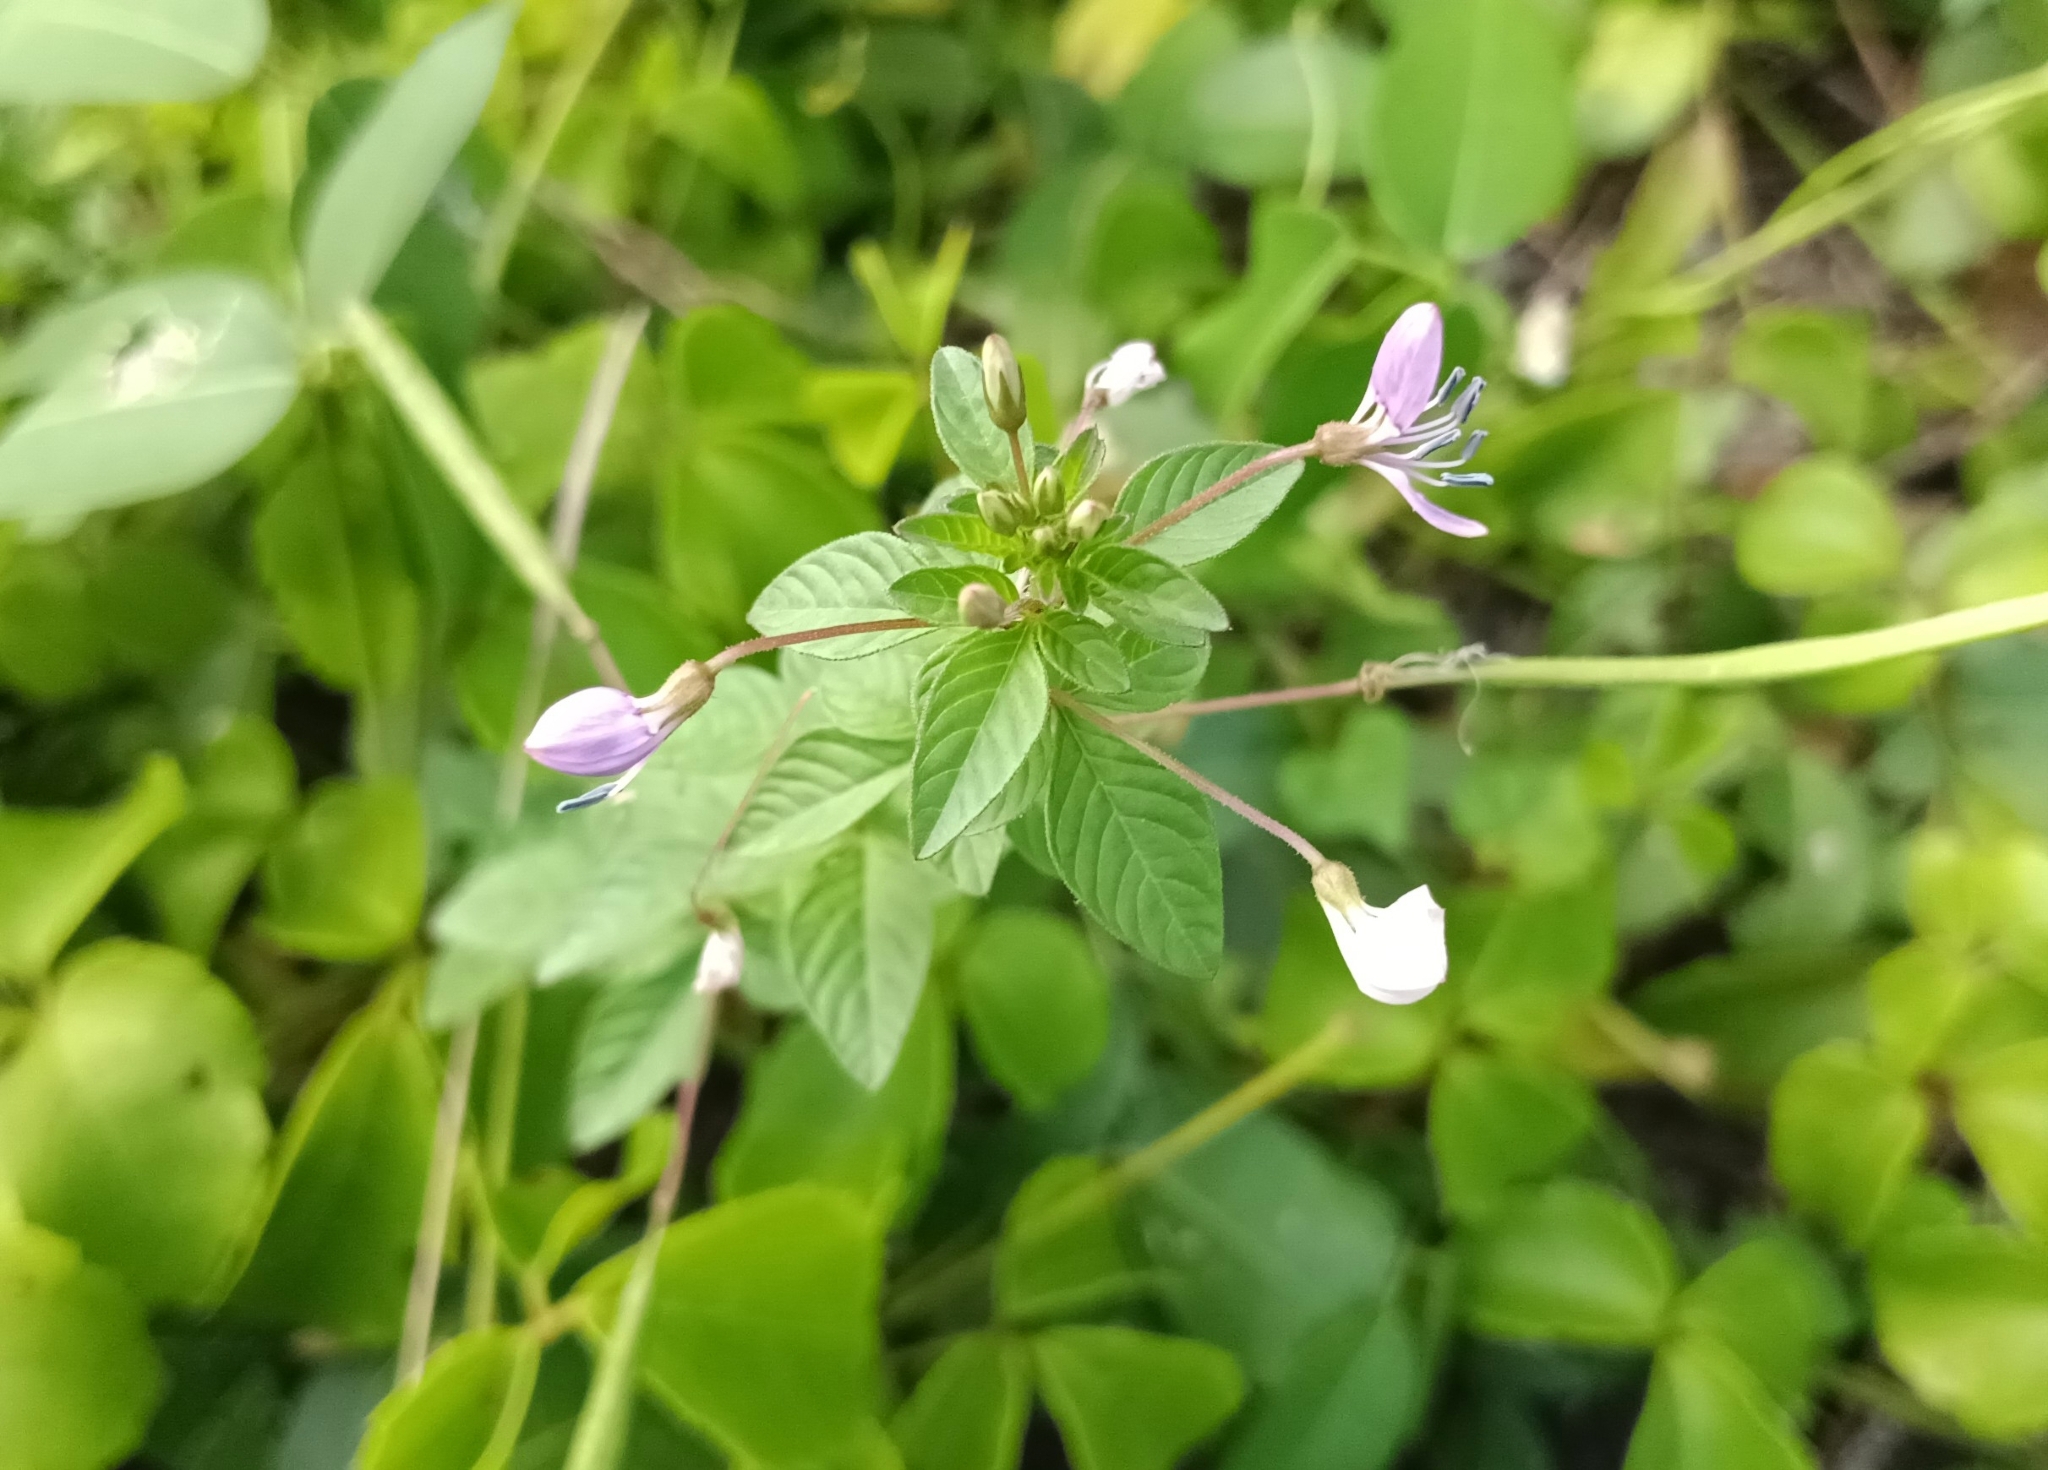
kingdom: Plantae
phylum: Tracheophyta
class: Magnoliopsida
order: Brassicales
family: Cleomaceae
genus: Sieruela
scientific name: Sieruela rutidosperma
